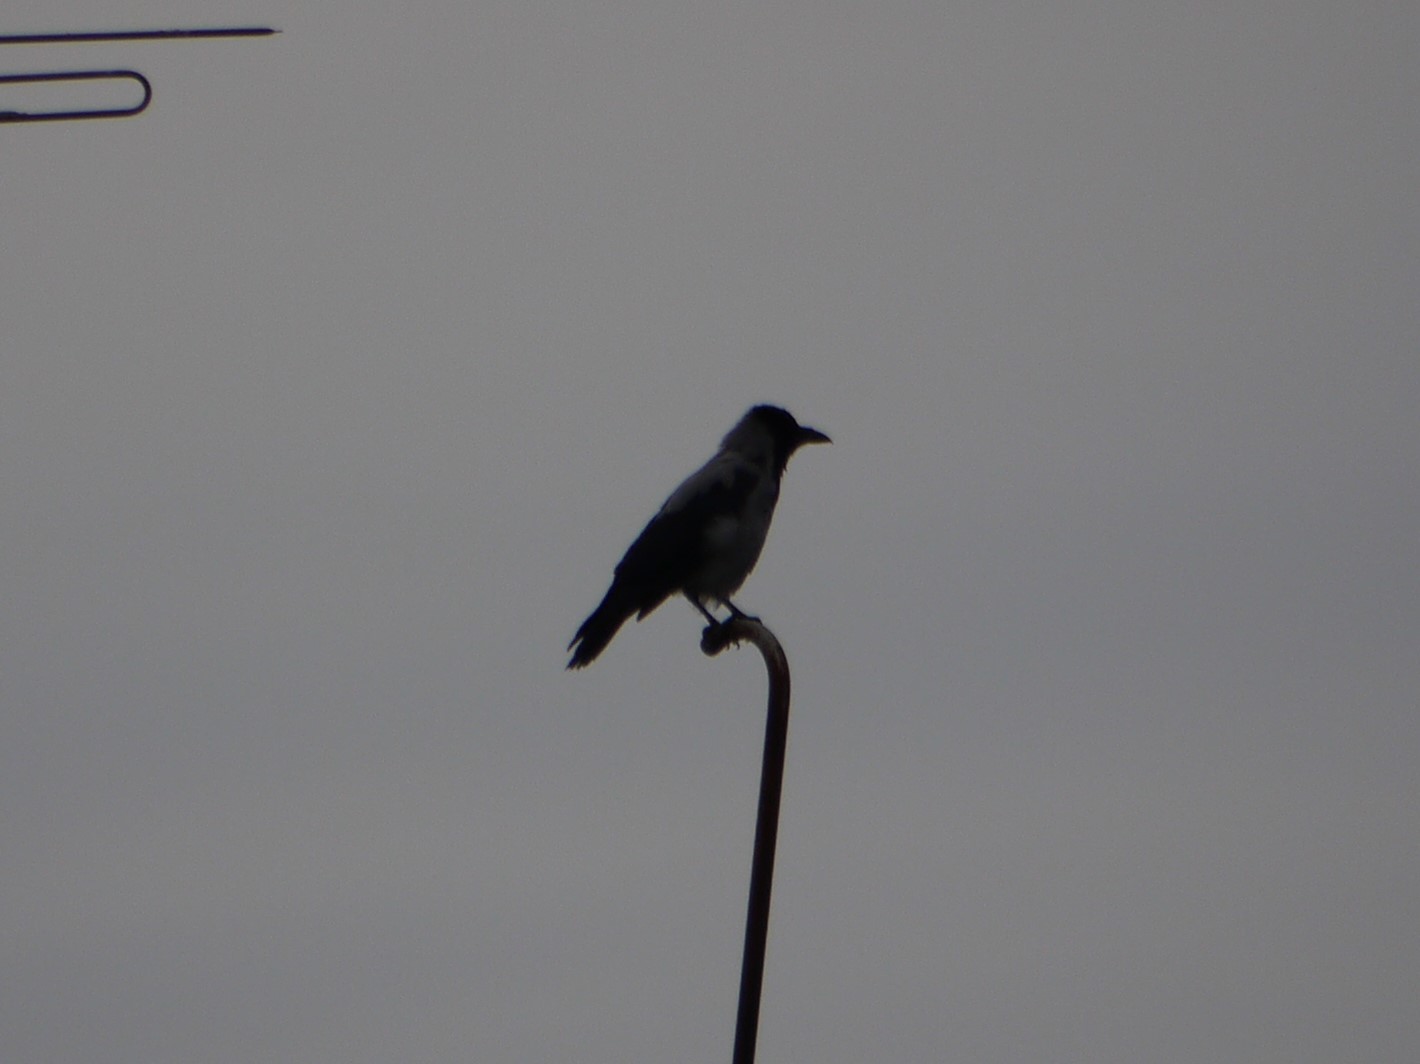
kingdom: Animalia
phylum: Chordata
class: Aves
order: Passeriformes
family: Corvidae
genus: Corvus
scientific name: Corvus cornix
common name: Hooded crow
